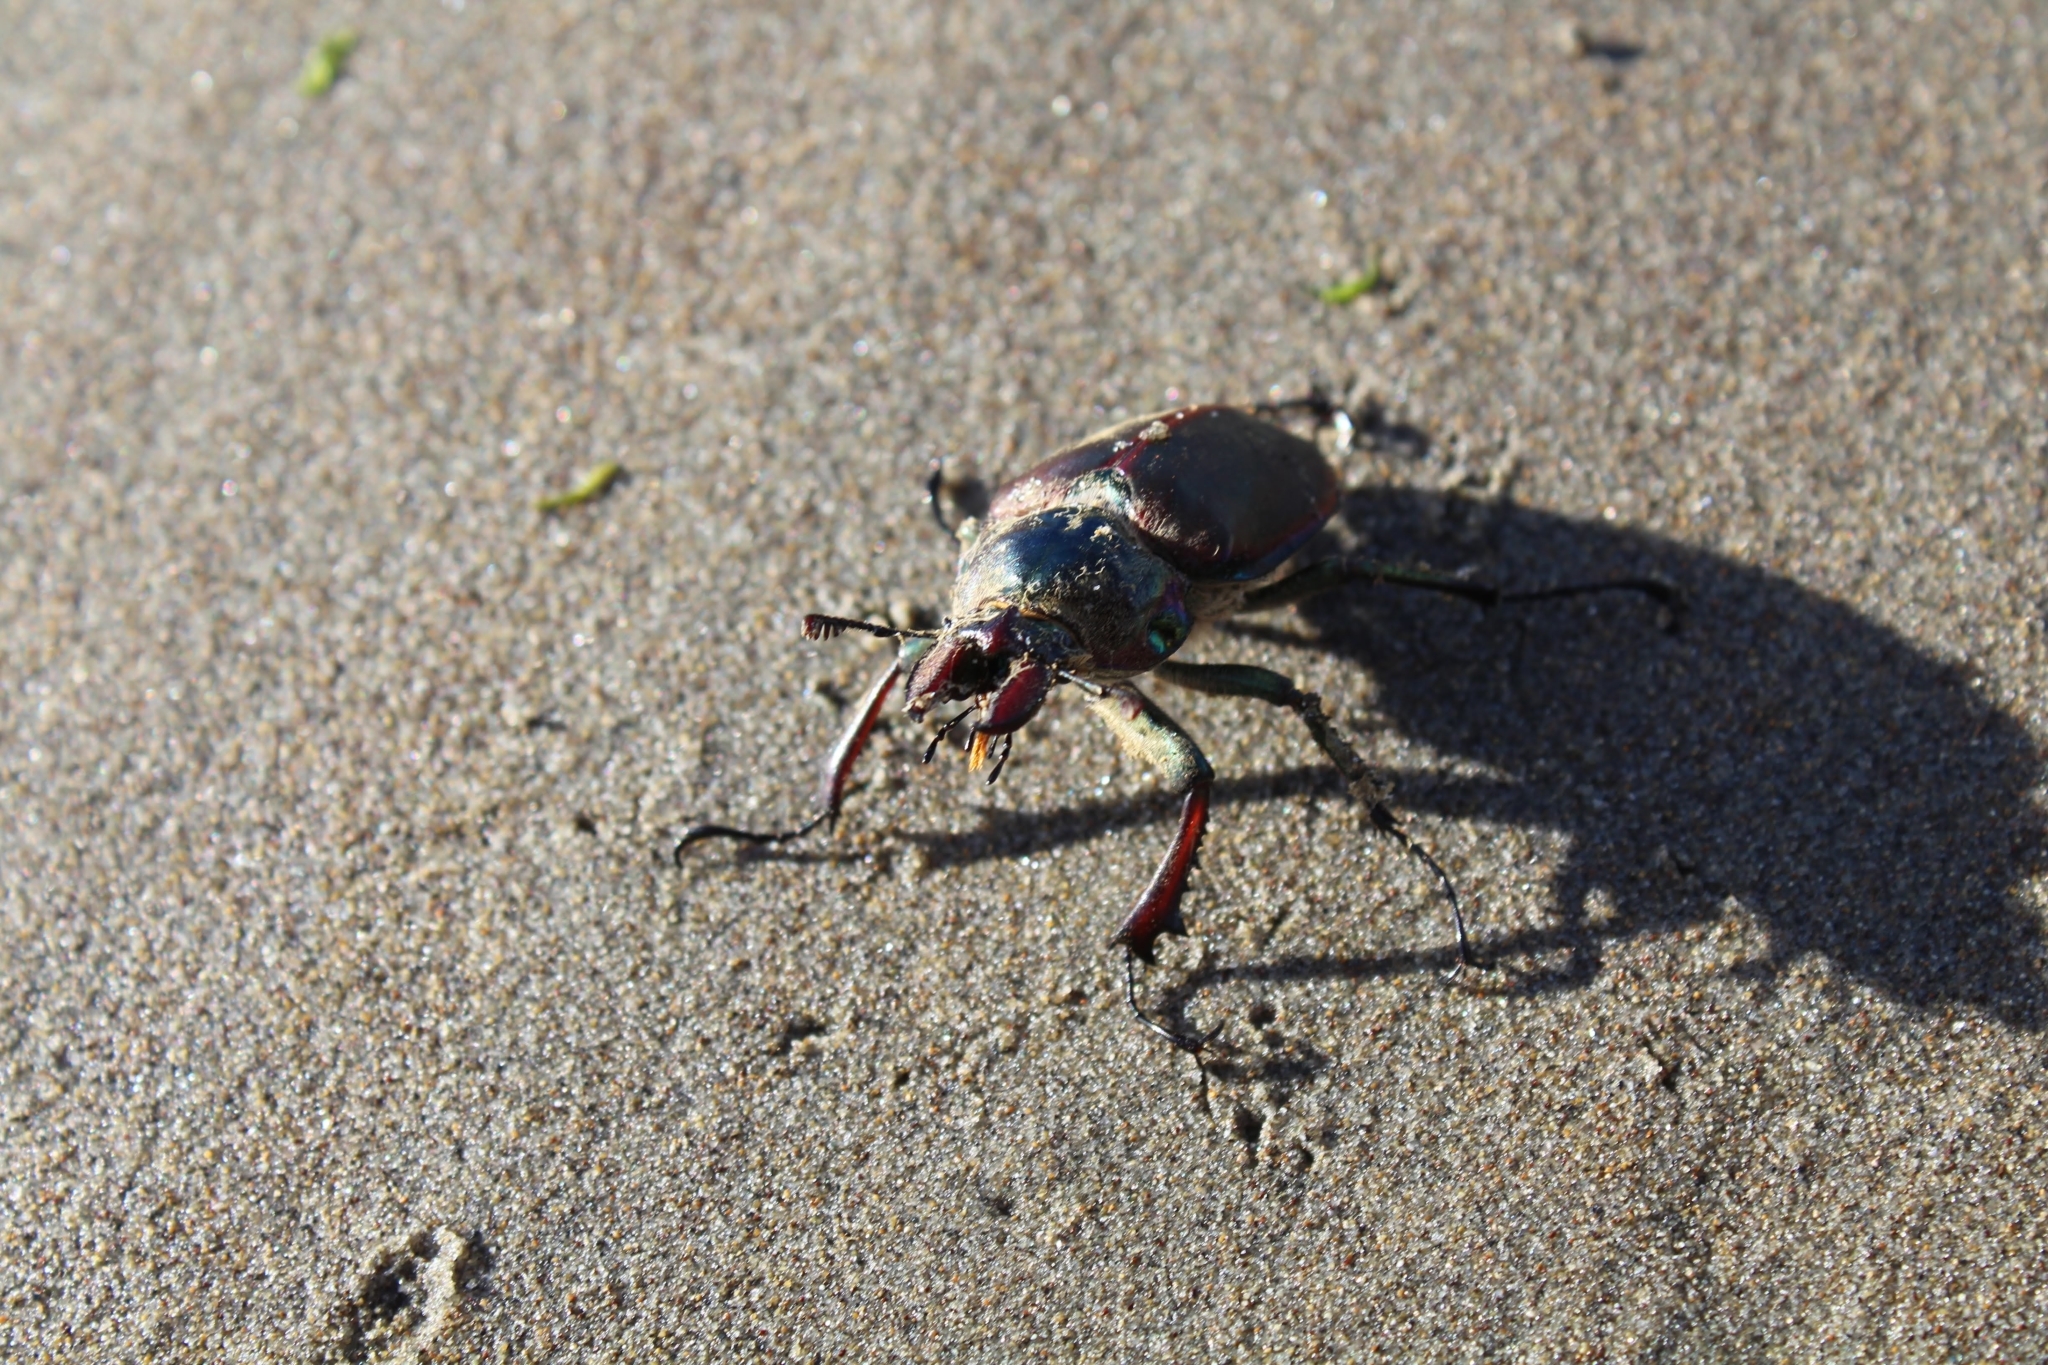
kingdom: Animalia
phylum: Arthropoda
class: Insecta
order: Coleoptera
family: Lucanidae
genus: Chiasognathus
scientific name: Chiasognathus grantii
